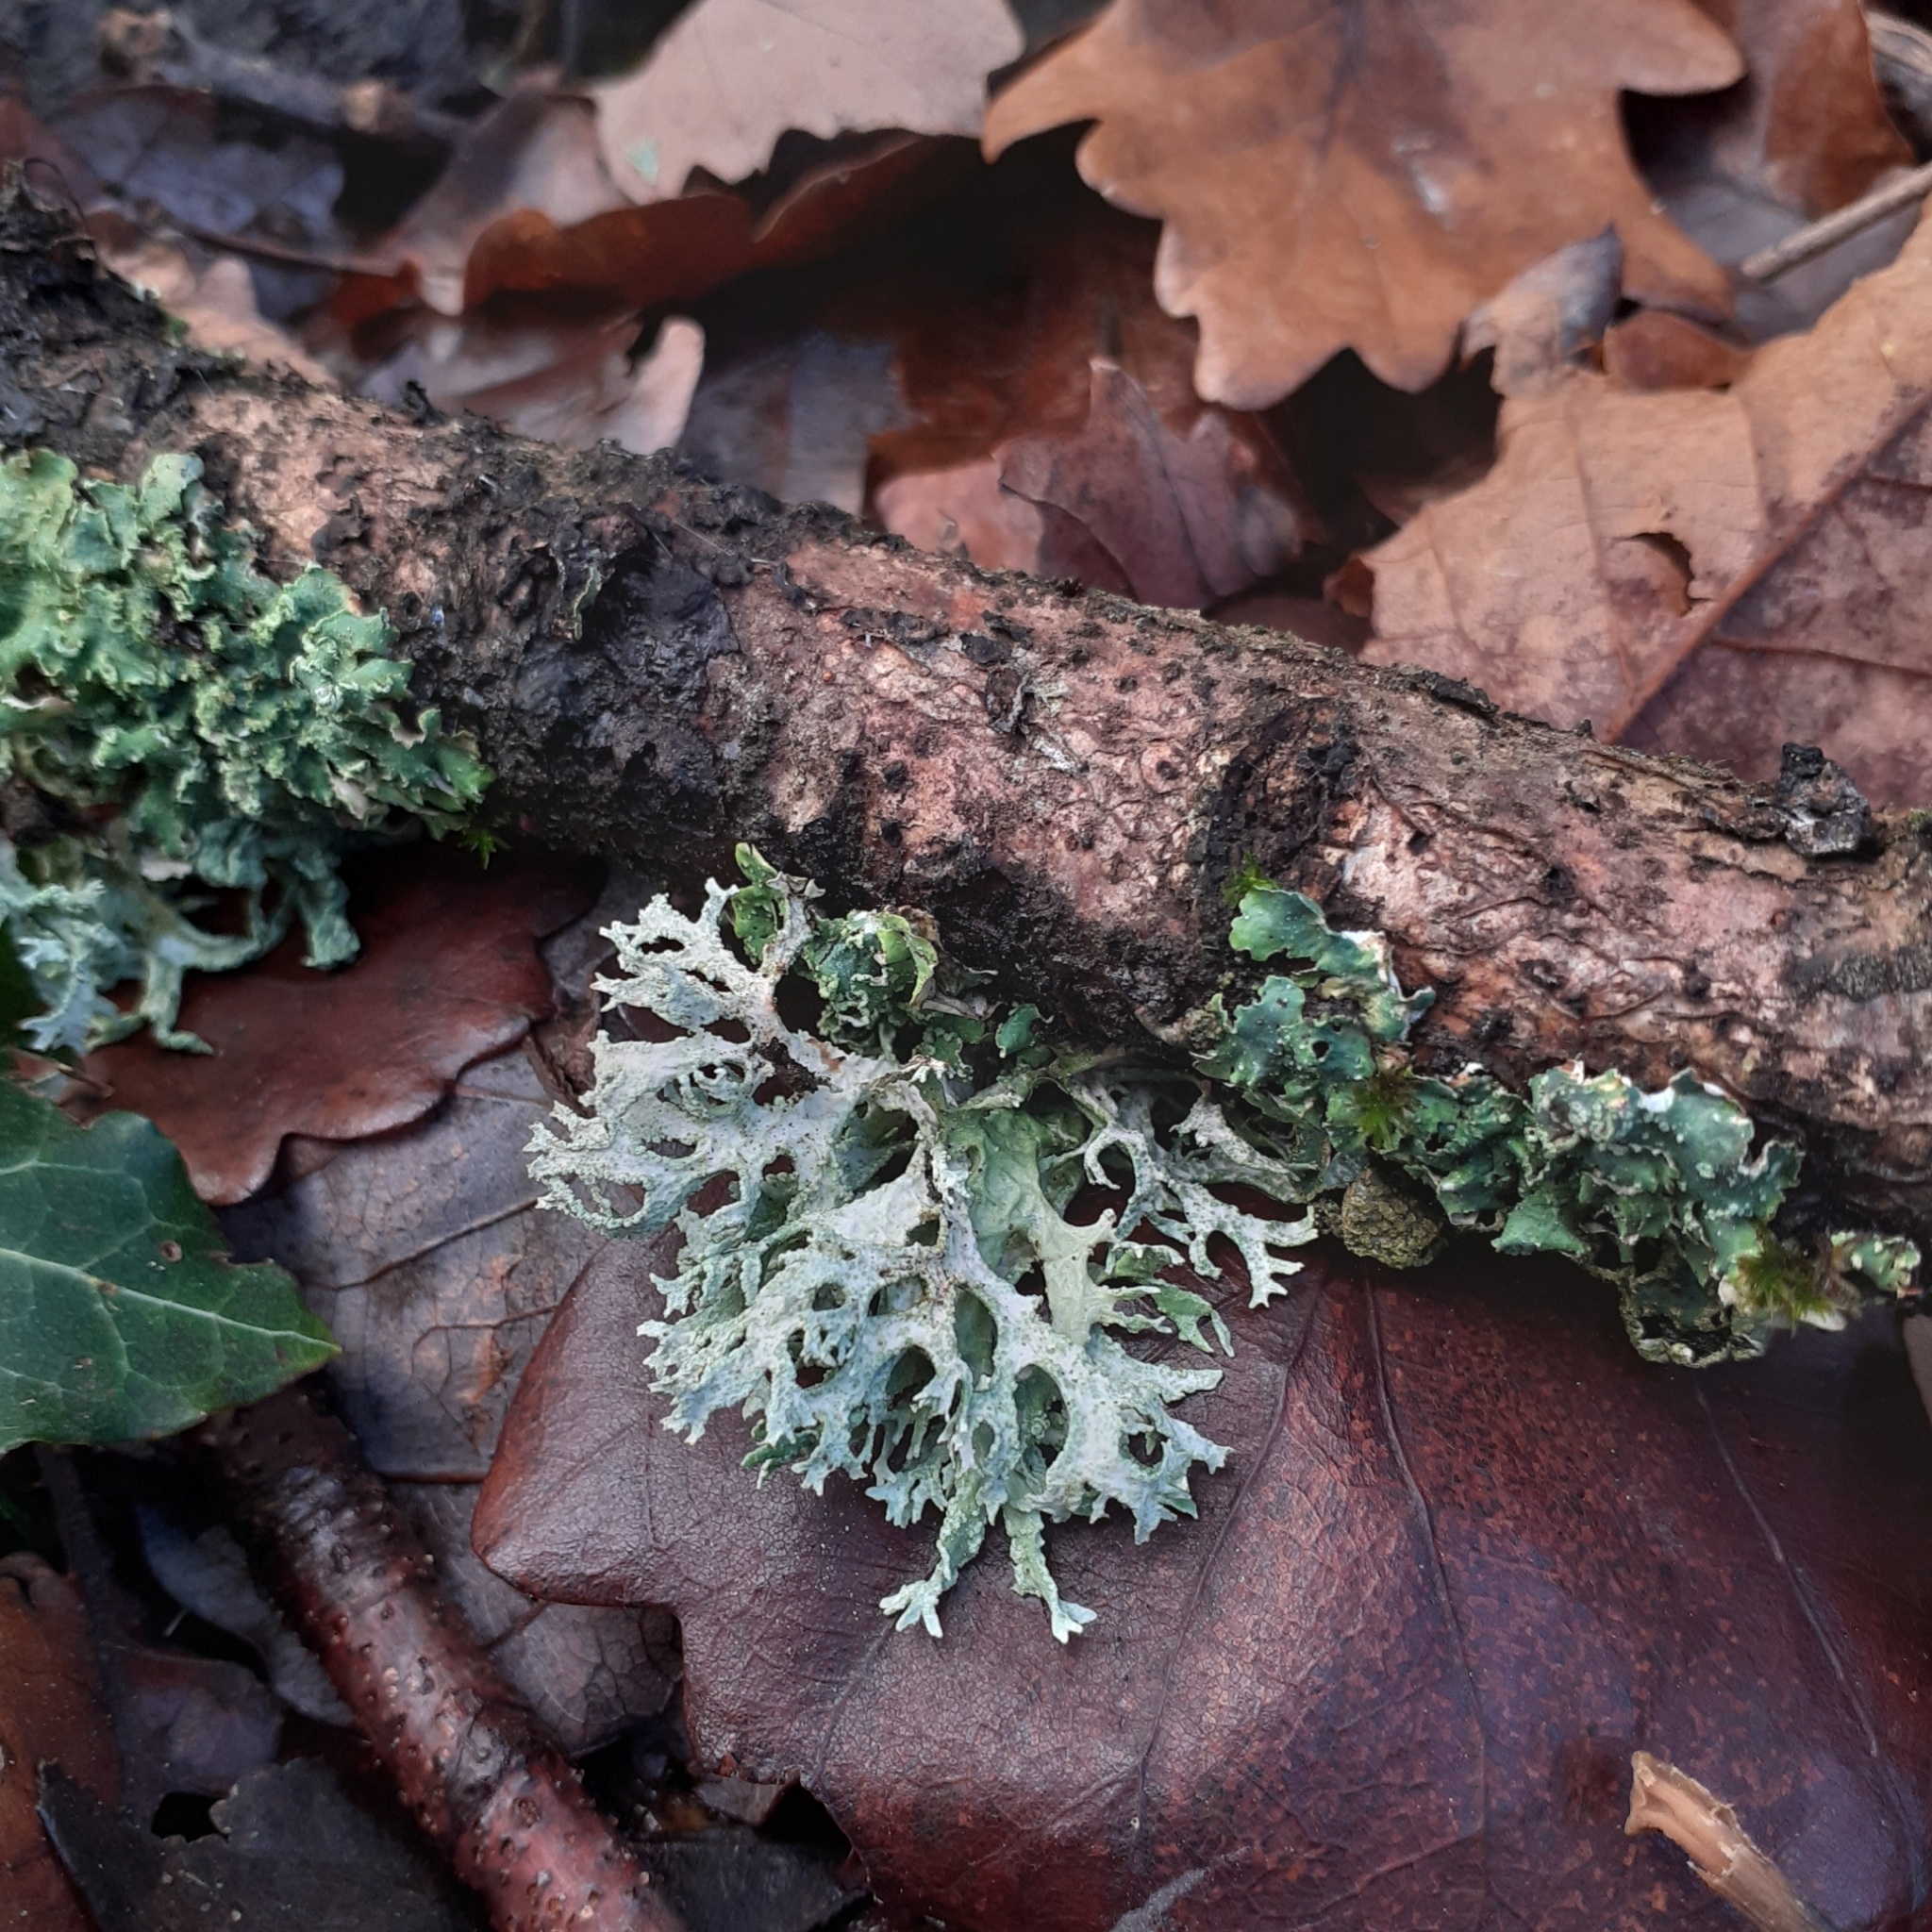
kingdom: Fungi
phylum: Ascomycota
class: Lecanoromycetes
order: Lecanorales
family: Parmeliaceae
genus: Evernia
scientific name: Evernia prunastri
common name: Oak moss
